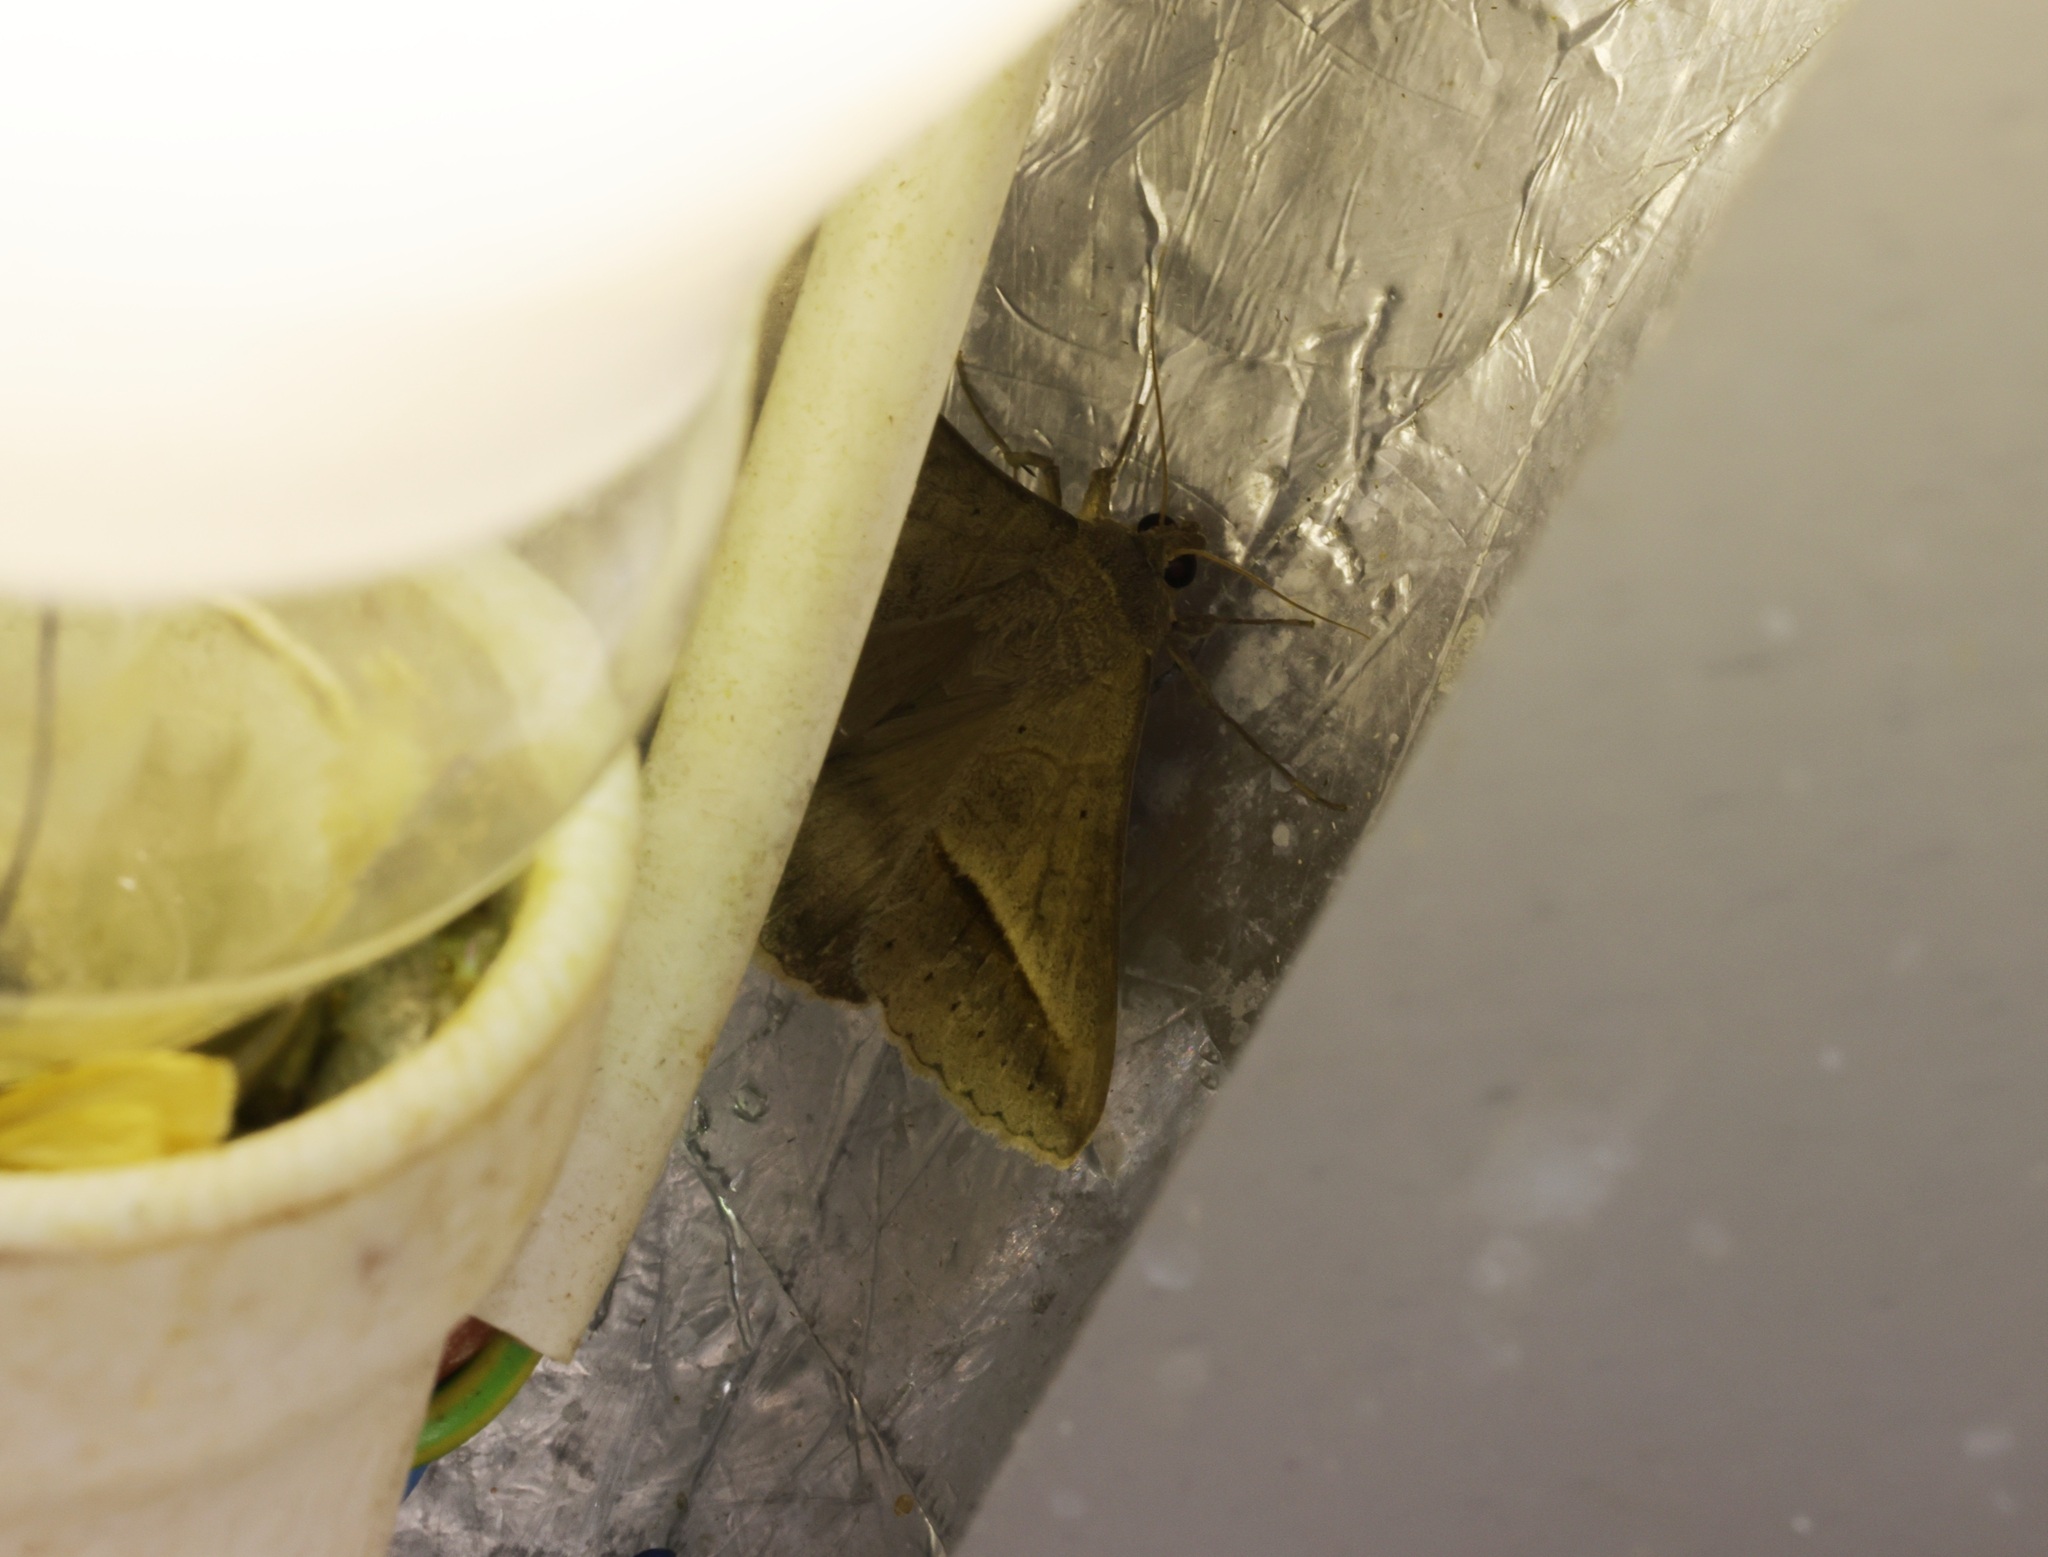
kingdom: Animalia
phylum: Arthropoda
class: Insecta
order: Lepidoptera
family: Erebidae
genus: Mocis
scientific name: Mocis frugalis
